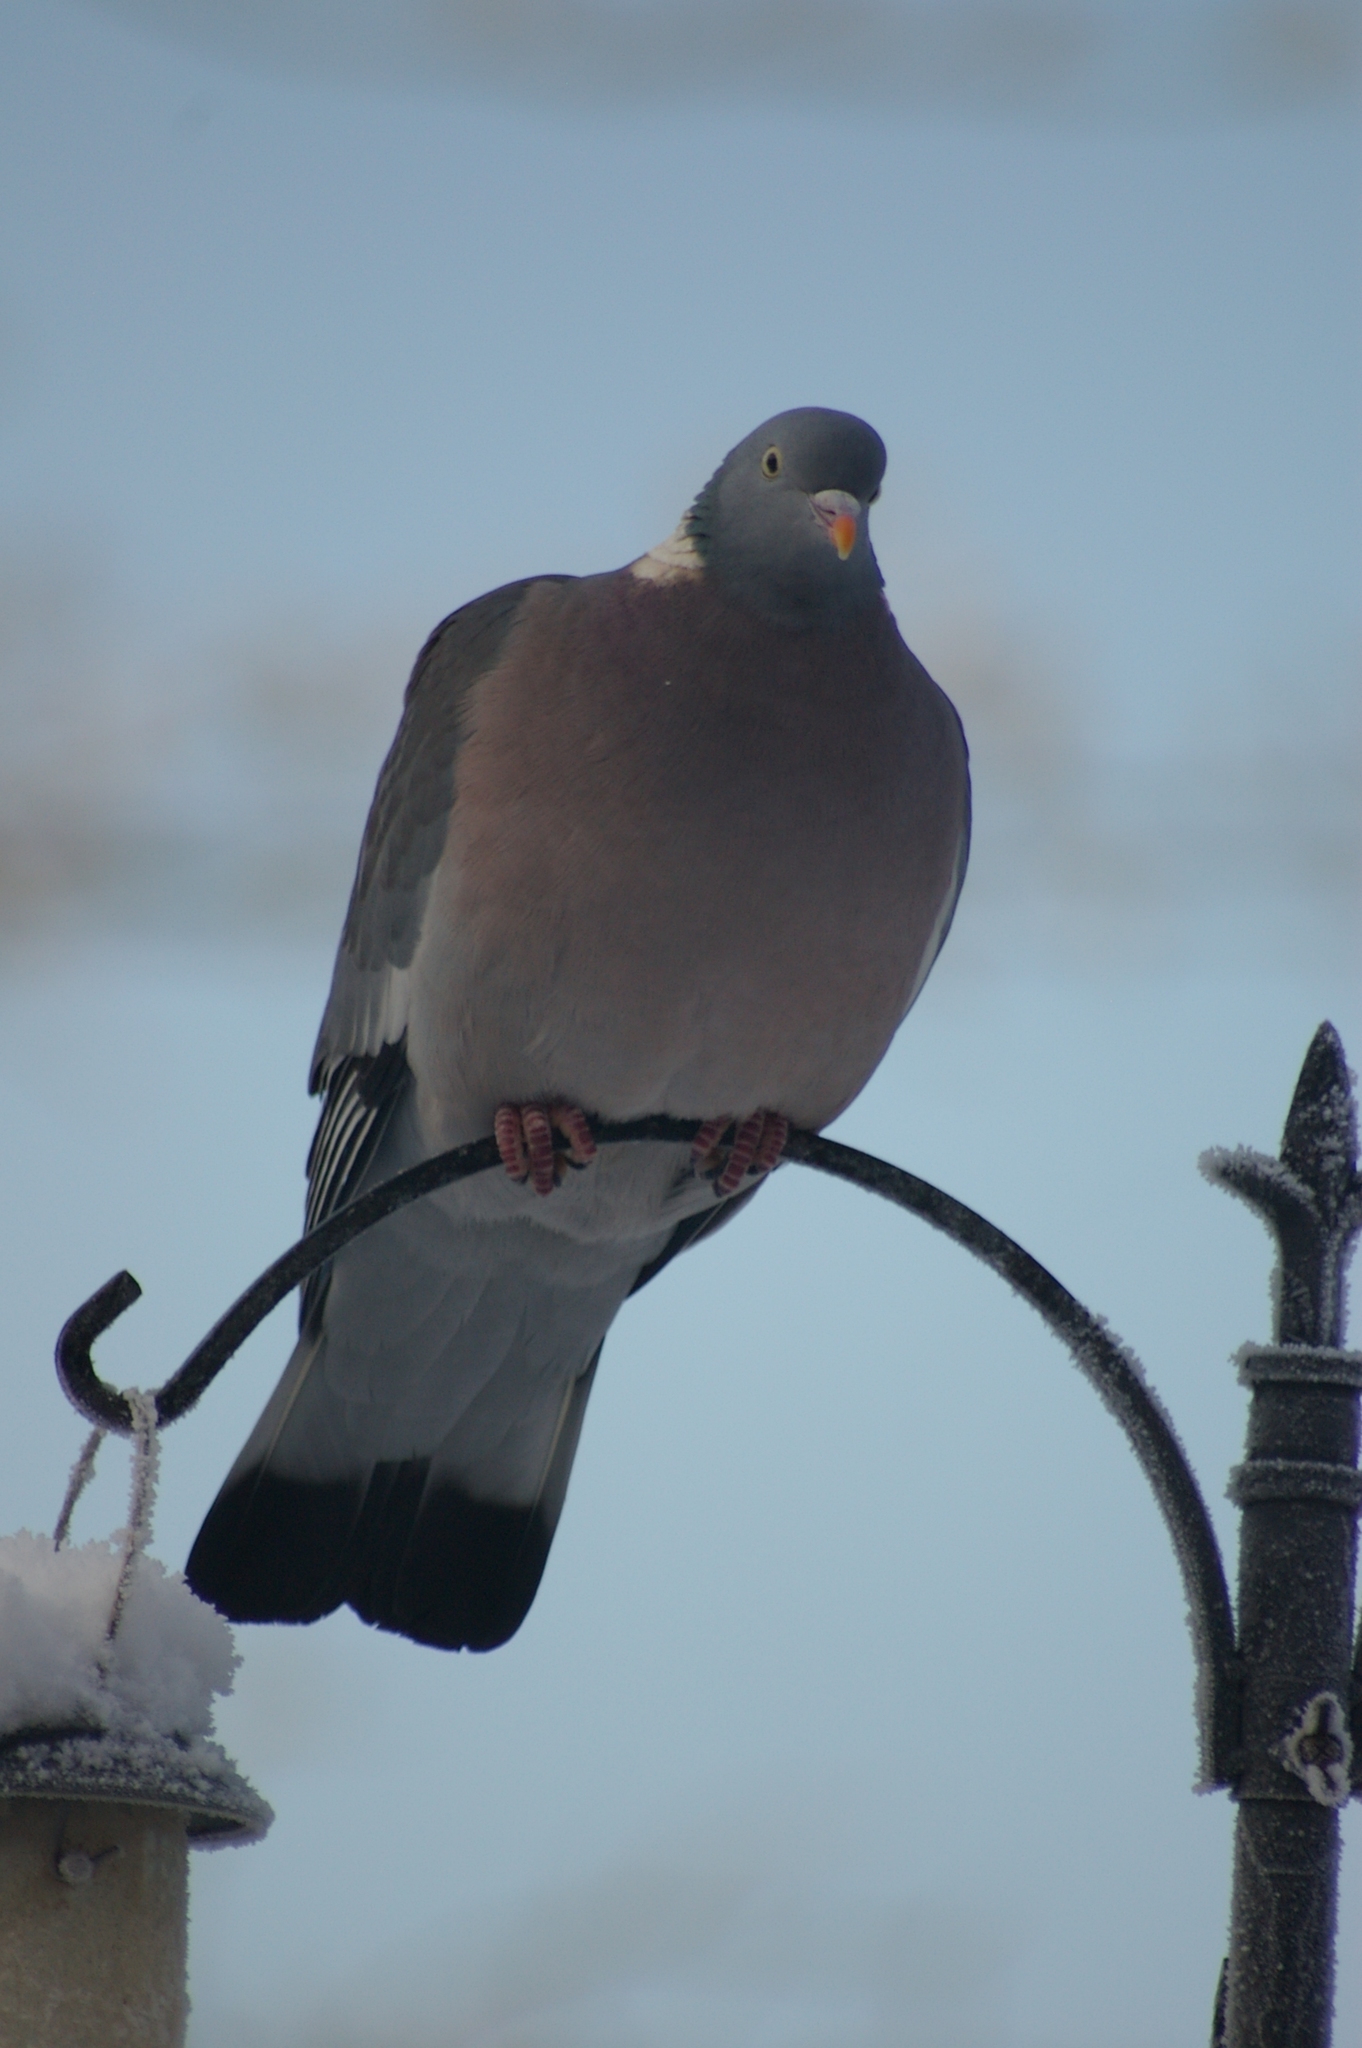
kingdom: Animalia
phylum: Chordata
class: Aves
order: Columbiformes
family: Columbidae
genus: Columba
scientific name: Columba palumbus
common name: Common wood pigeon
